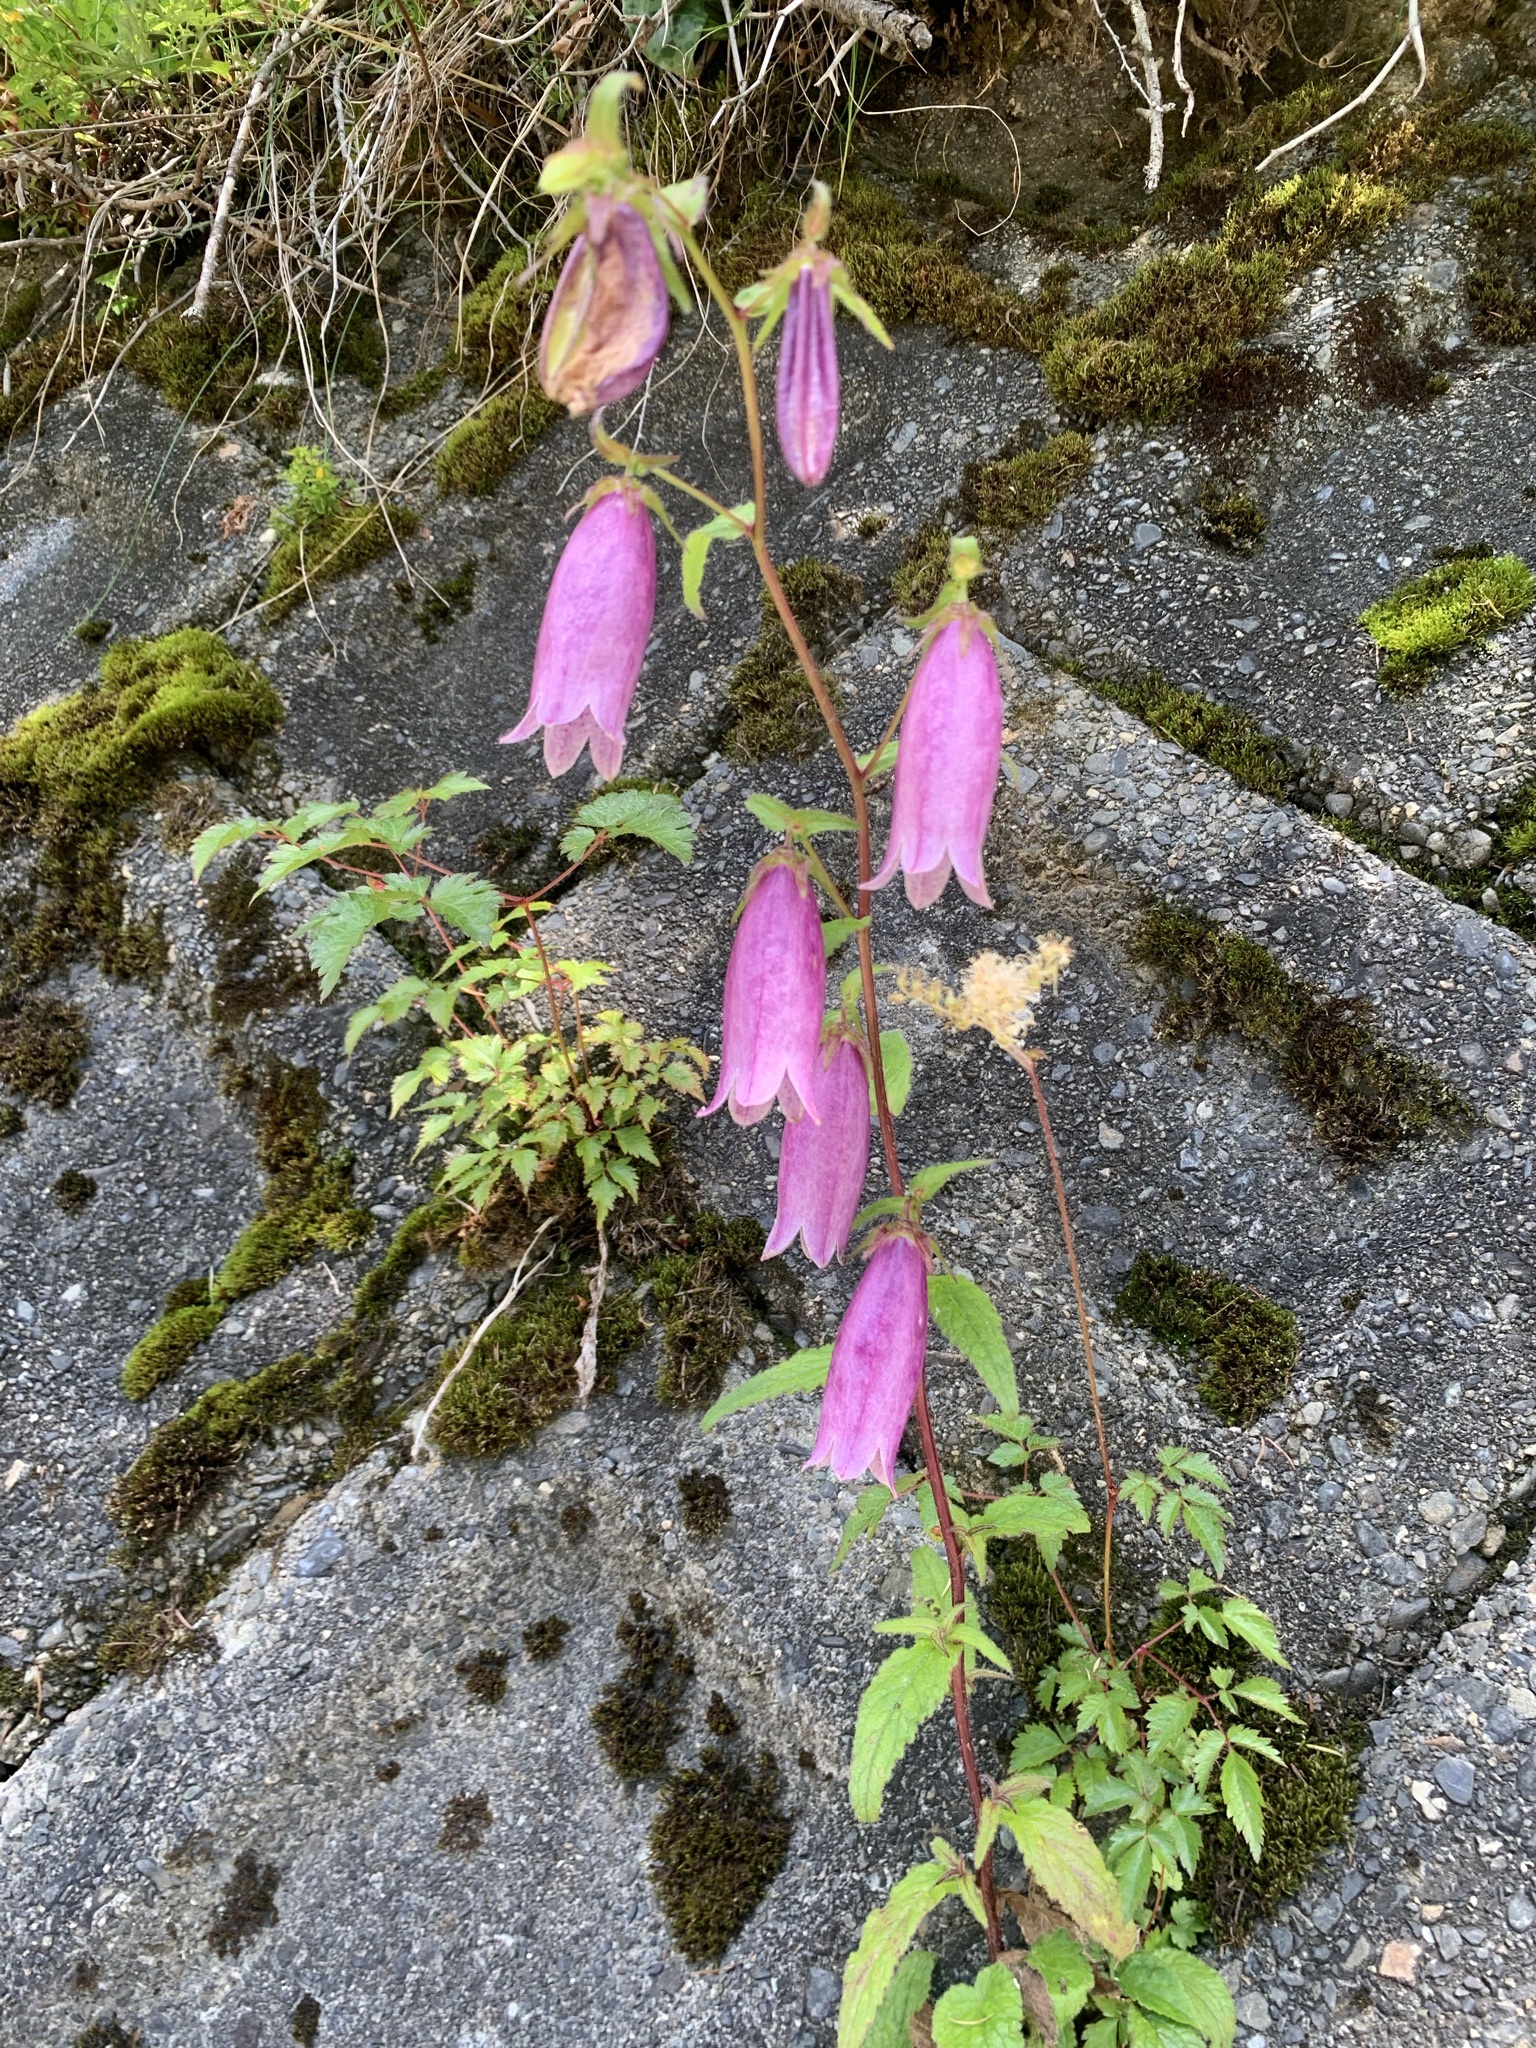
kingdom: Plantae
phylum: Tracheophyta
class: Magnoliopsida
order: Asterales
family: Campanulaceae
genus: Campanula
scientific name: Campanula punctata
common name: Spotted bellflower
